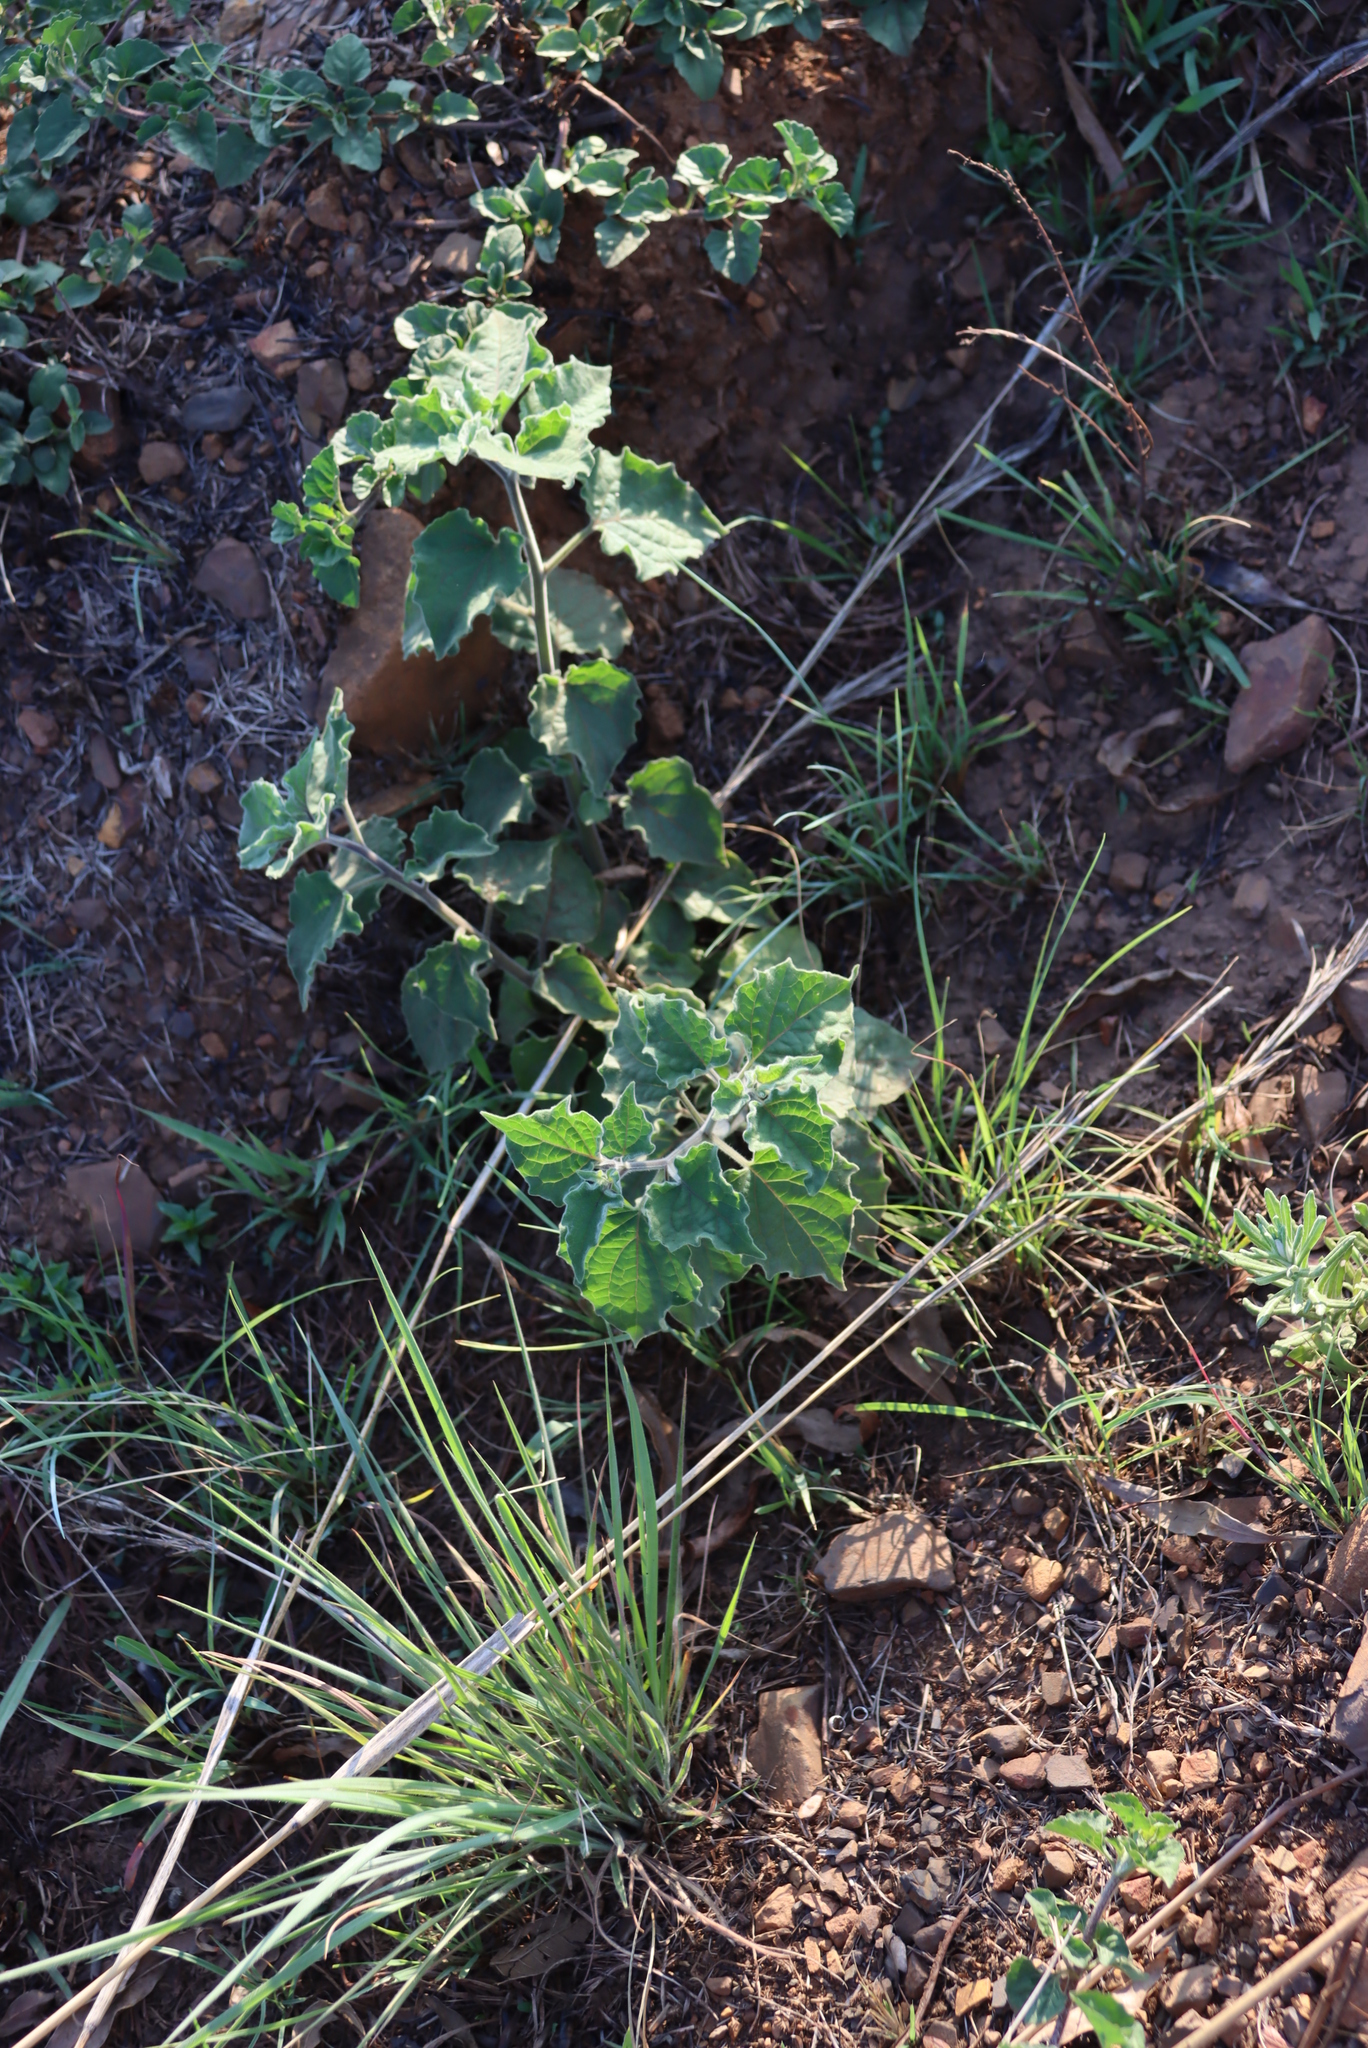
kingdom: Plantae
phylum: Tracheophyta
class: Magnoliopsida
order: Solanales
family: Solanaceae
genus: Physalis
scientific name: Physalis peruviana
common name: Cape-gooseberry
